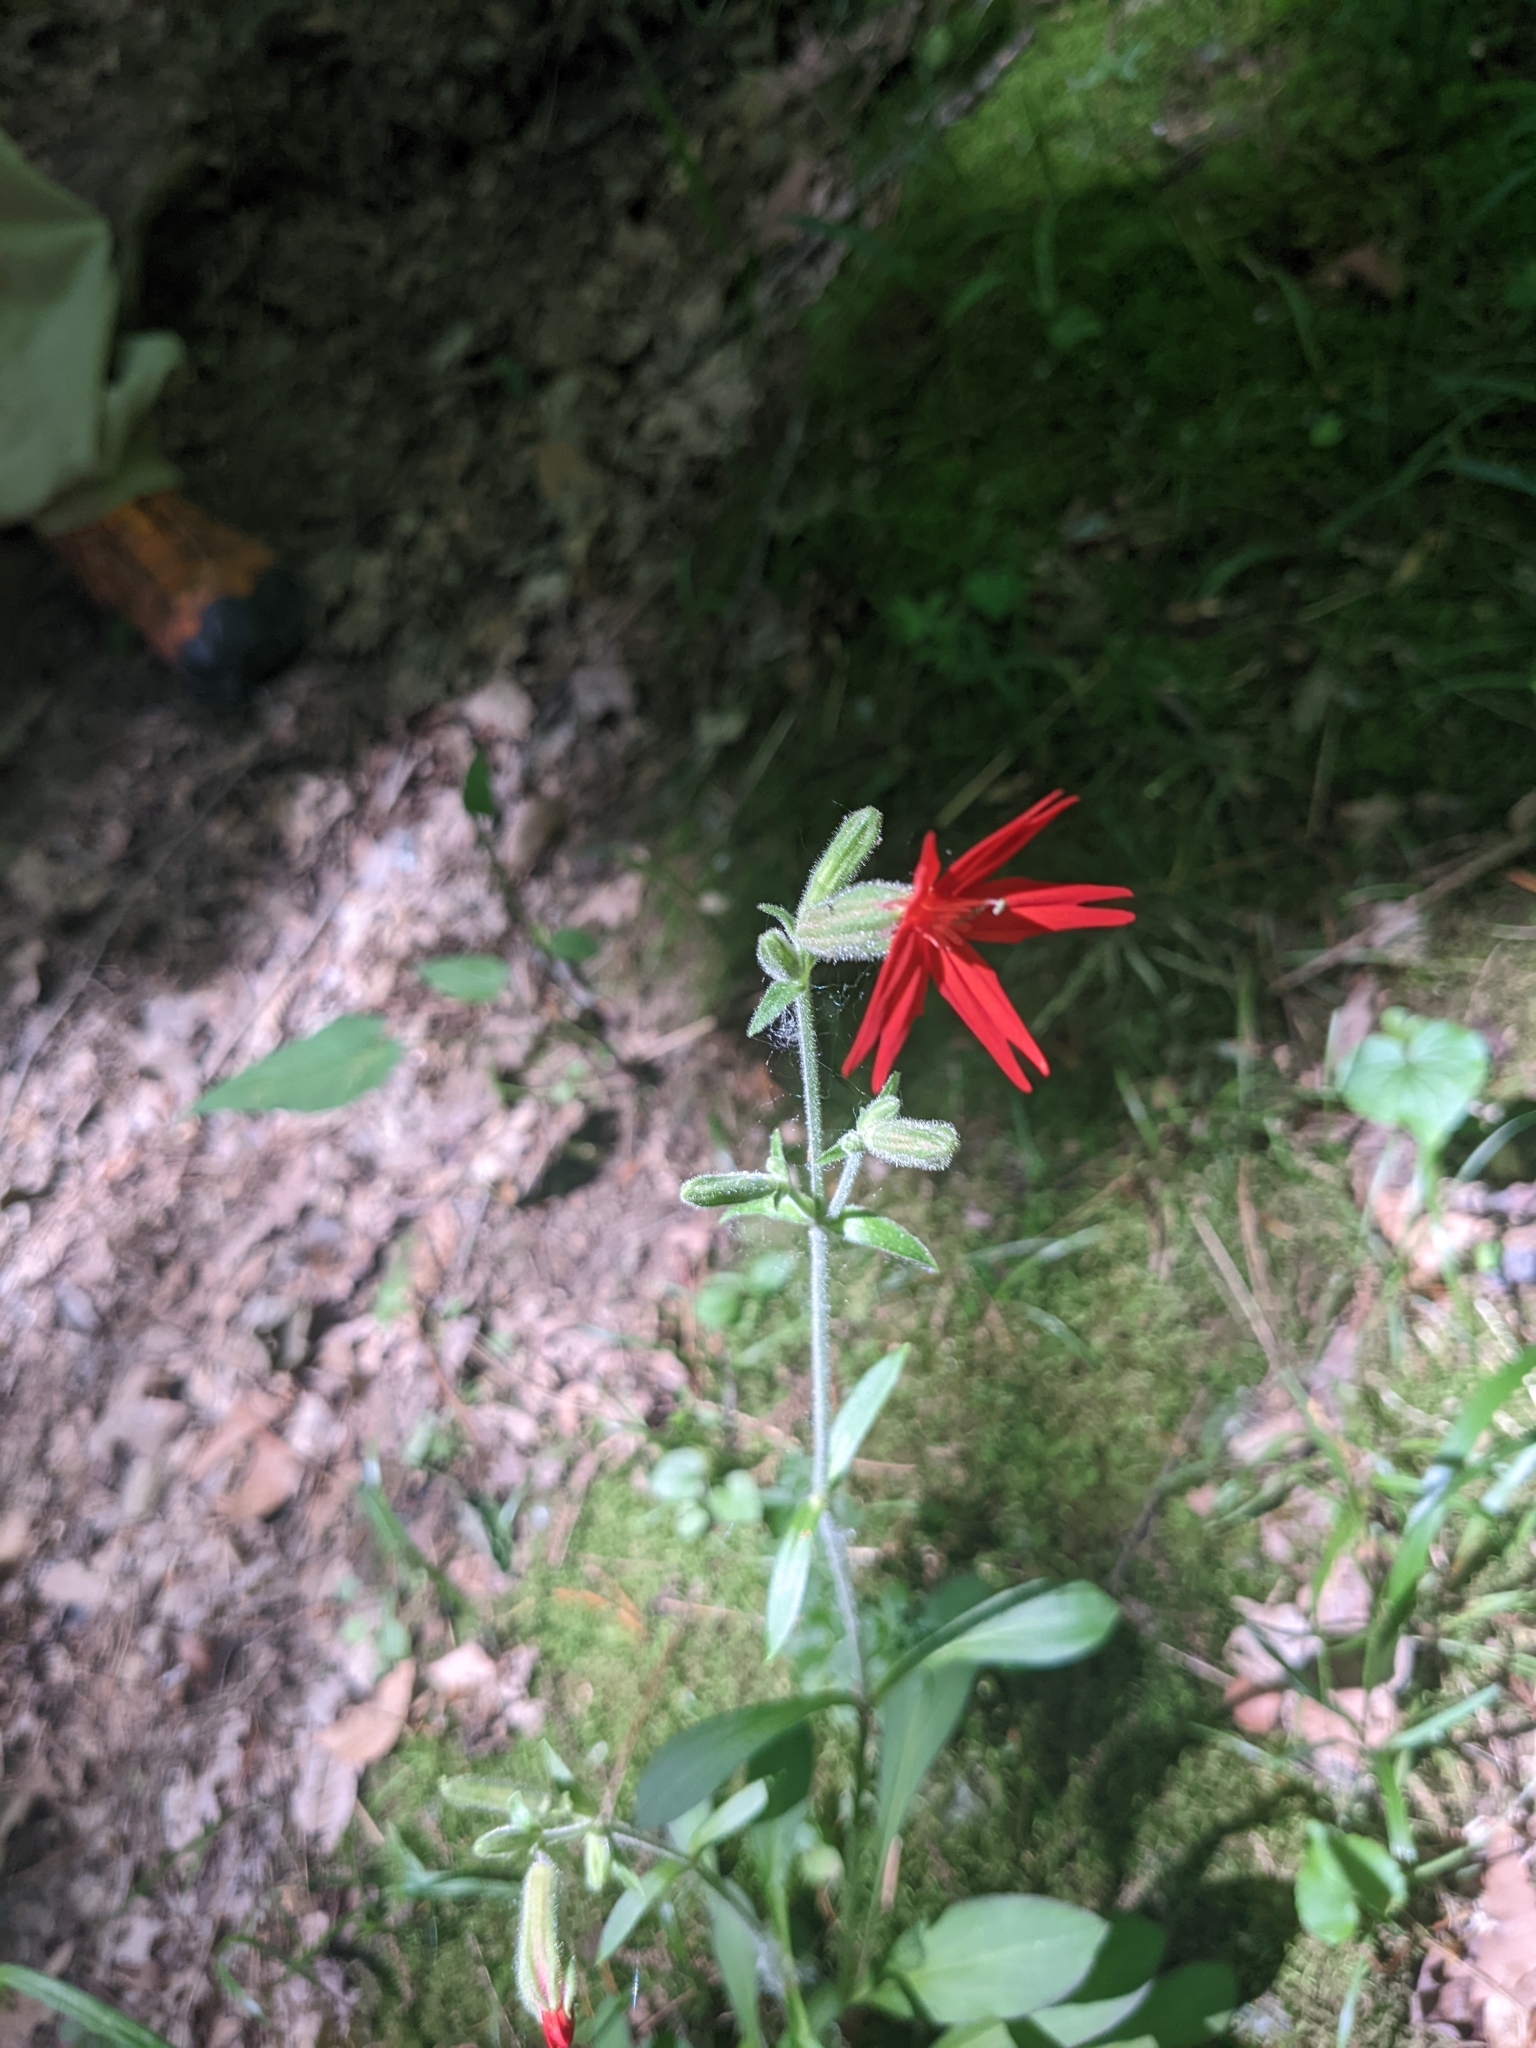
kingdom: Plantae
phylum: Tracheophyta
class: Magnoliopsida
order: Caryophyllales
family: Caryophyllaceae
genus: Silene
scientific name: Silene virginica
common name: Fire-pink
